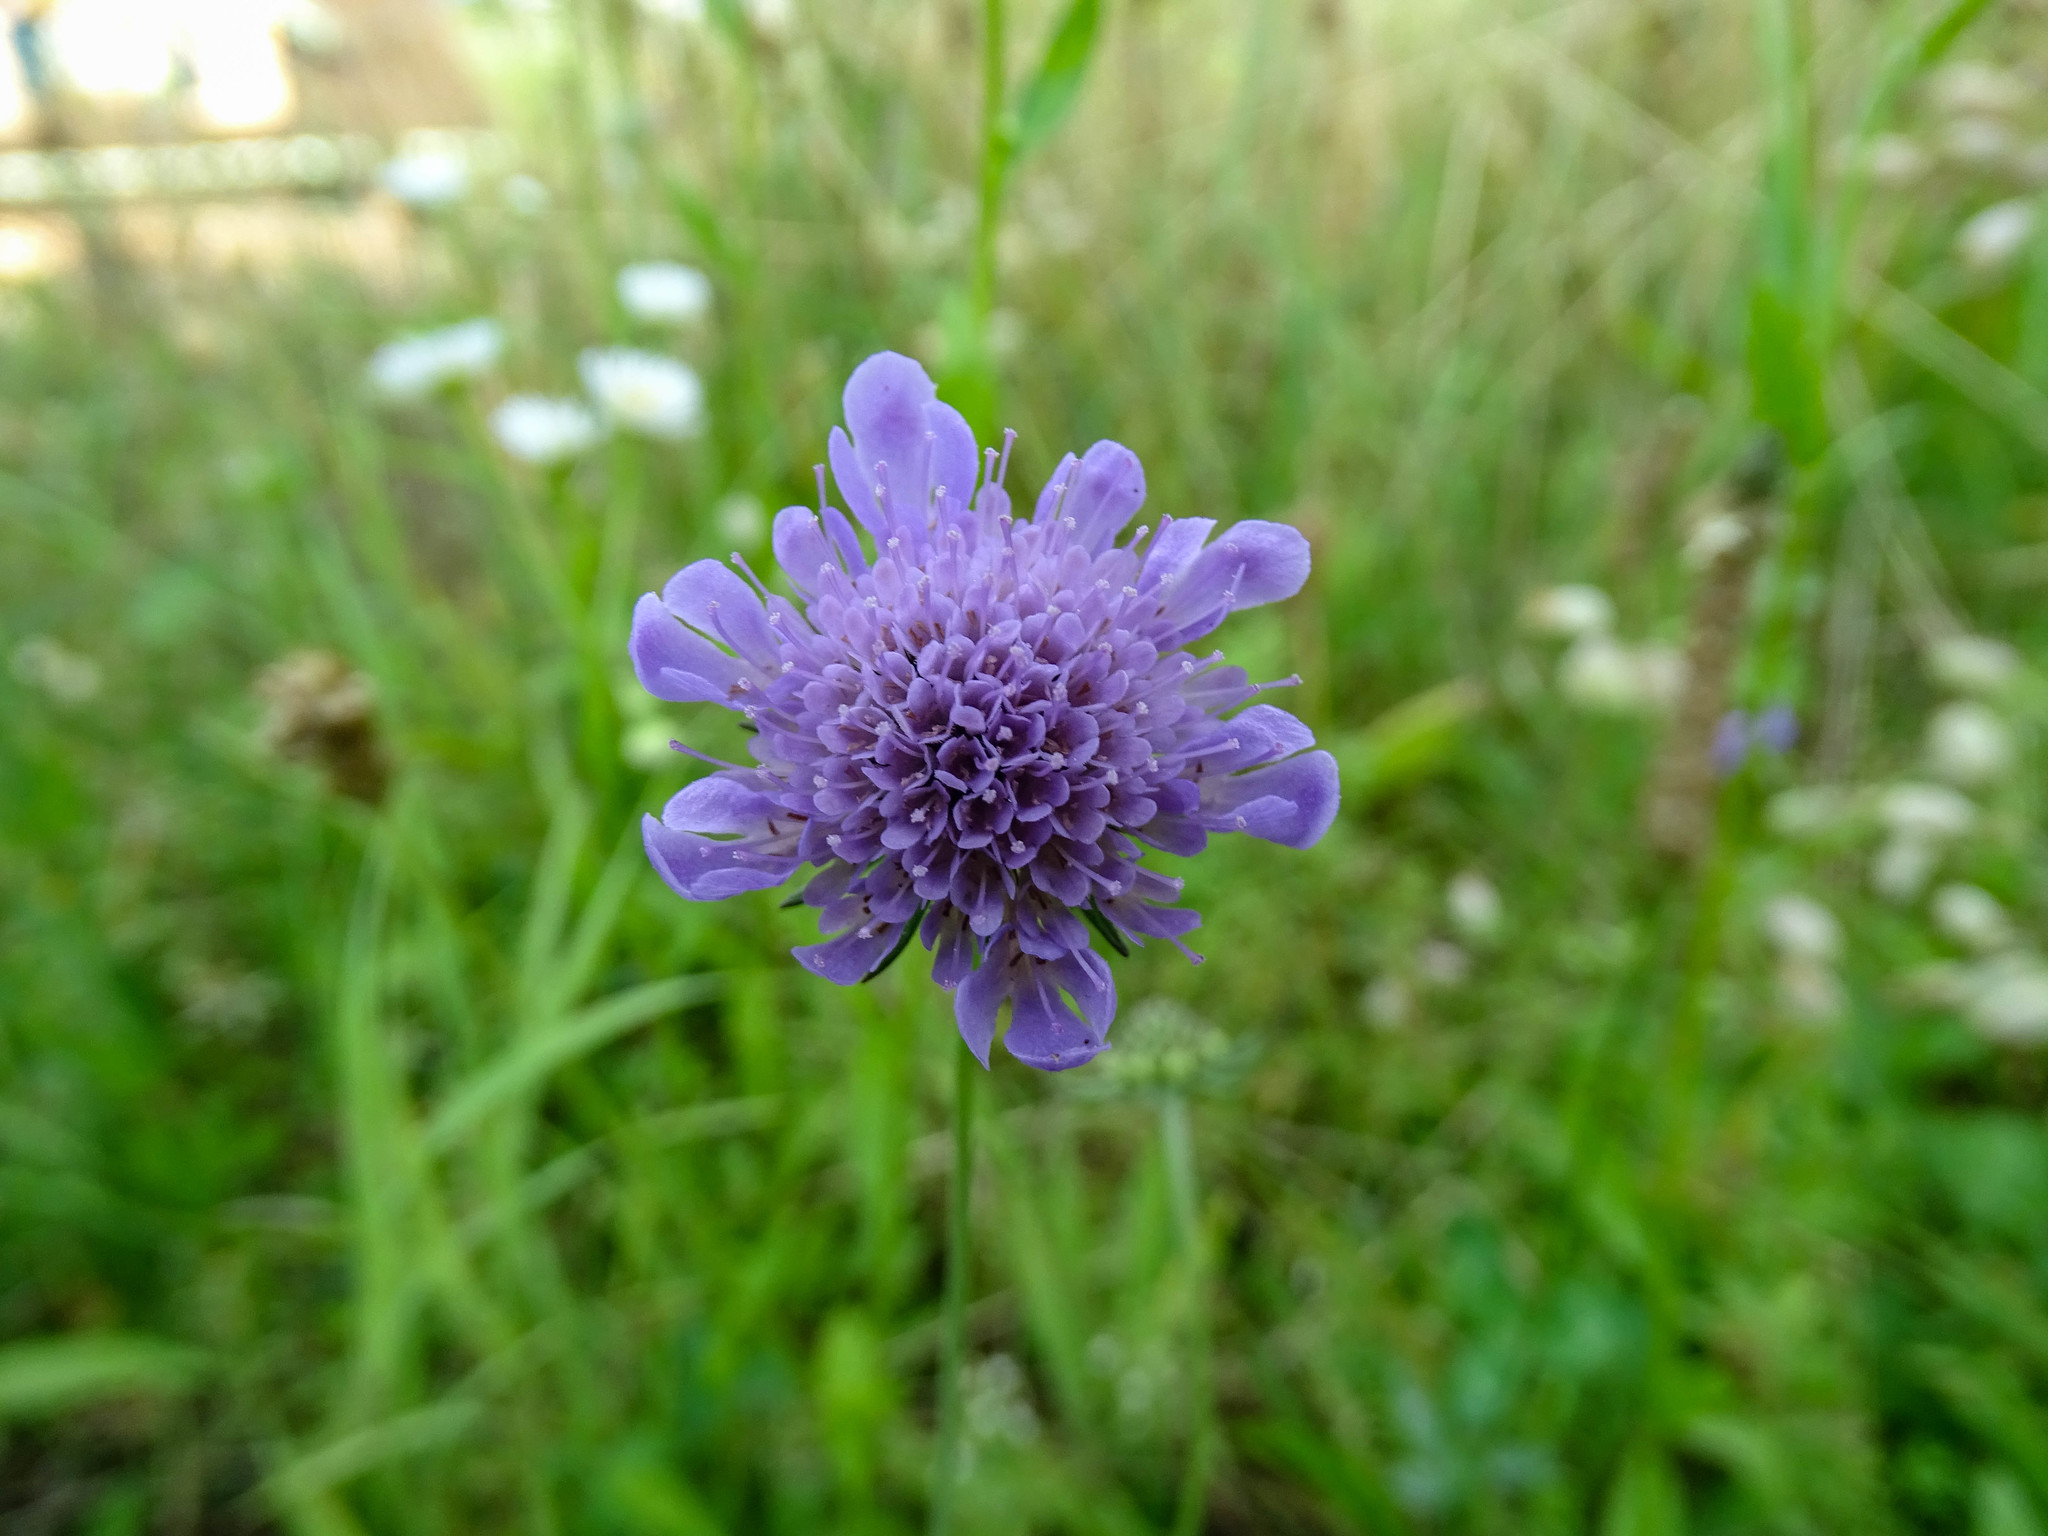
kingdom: Plantae
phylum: Tracheophyta
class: Magnoliopsida
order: Dipsacales
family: Caprifoliaceae
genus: Knautia
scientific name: Knautia arvensis
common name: Field scabiosa
